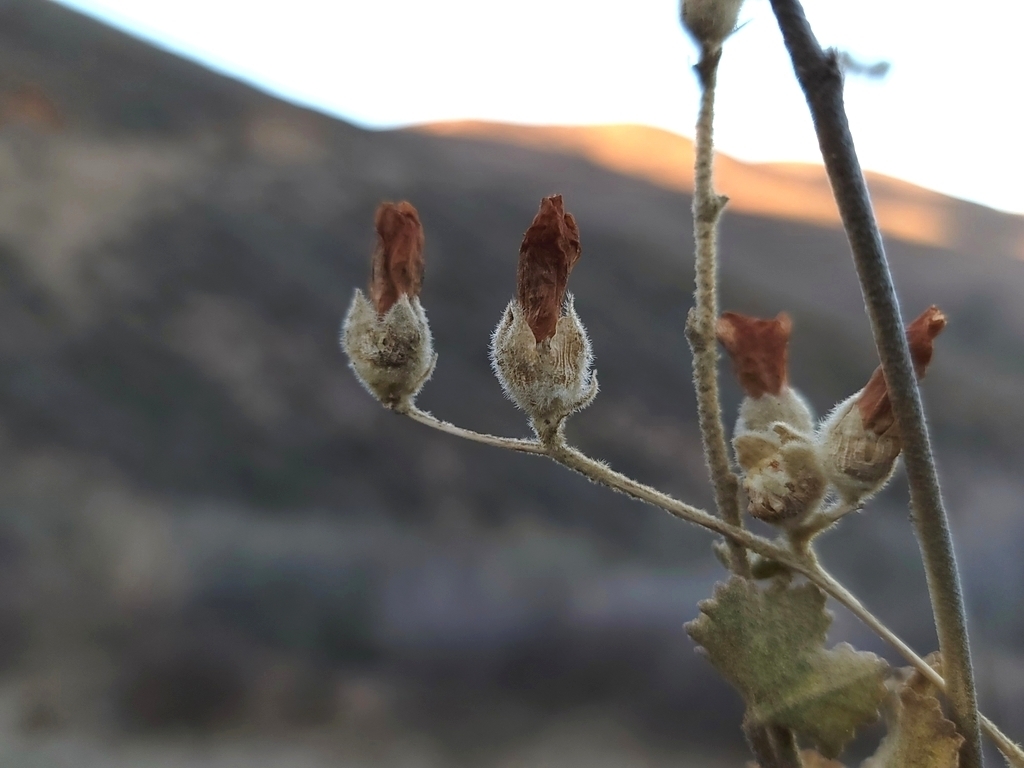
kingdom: Plantae
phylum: Tracheophyta
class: Magnoliopsida
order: Malvales
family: Malvaceae
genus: Malacothamnus
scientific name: Malacothamnus fremontii
